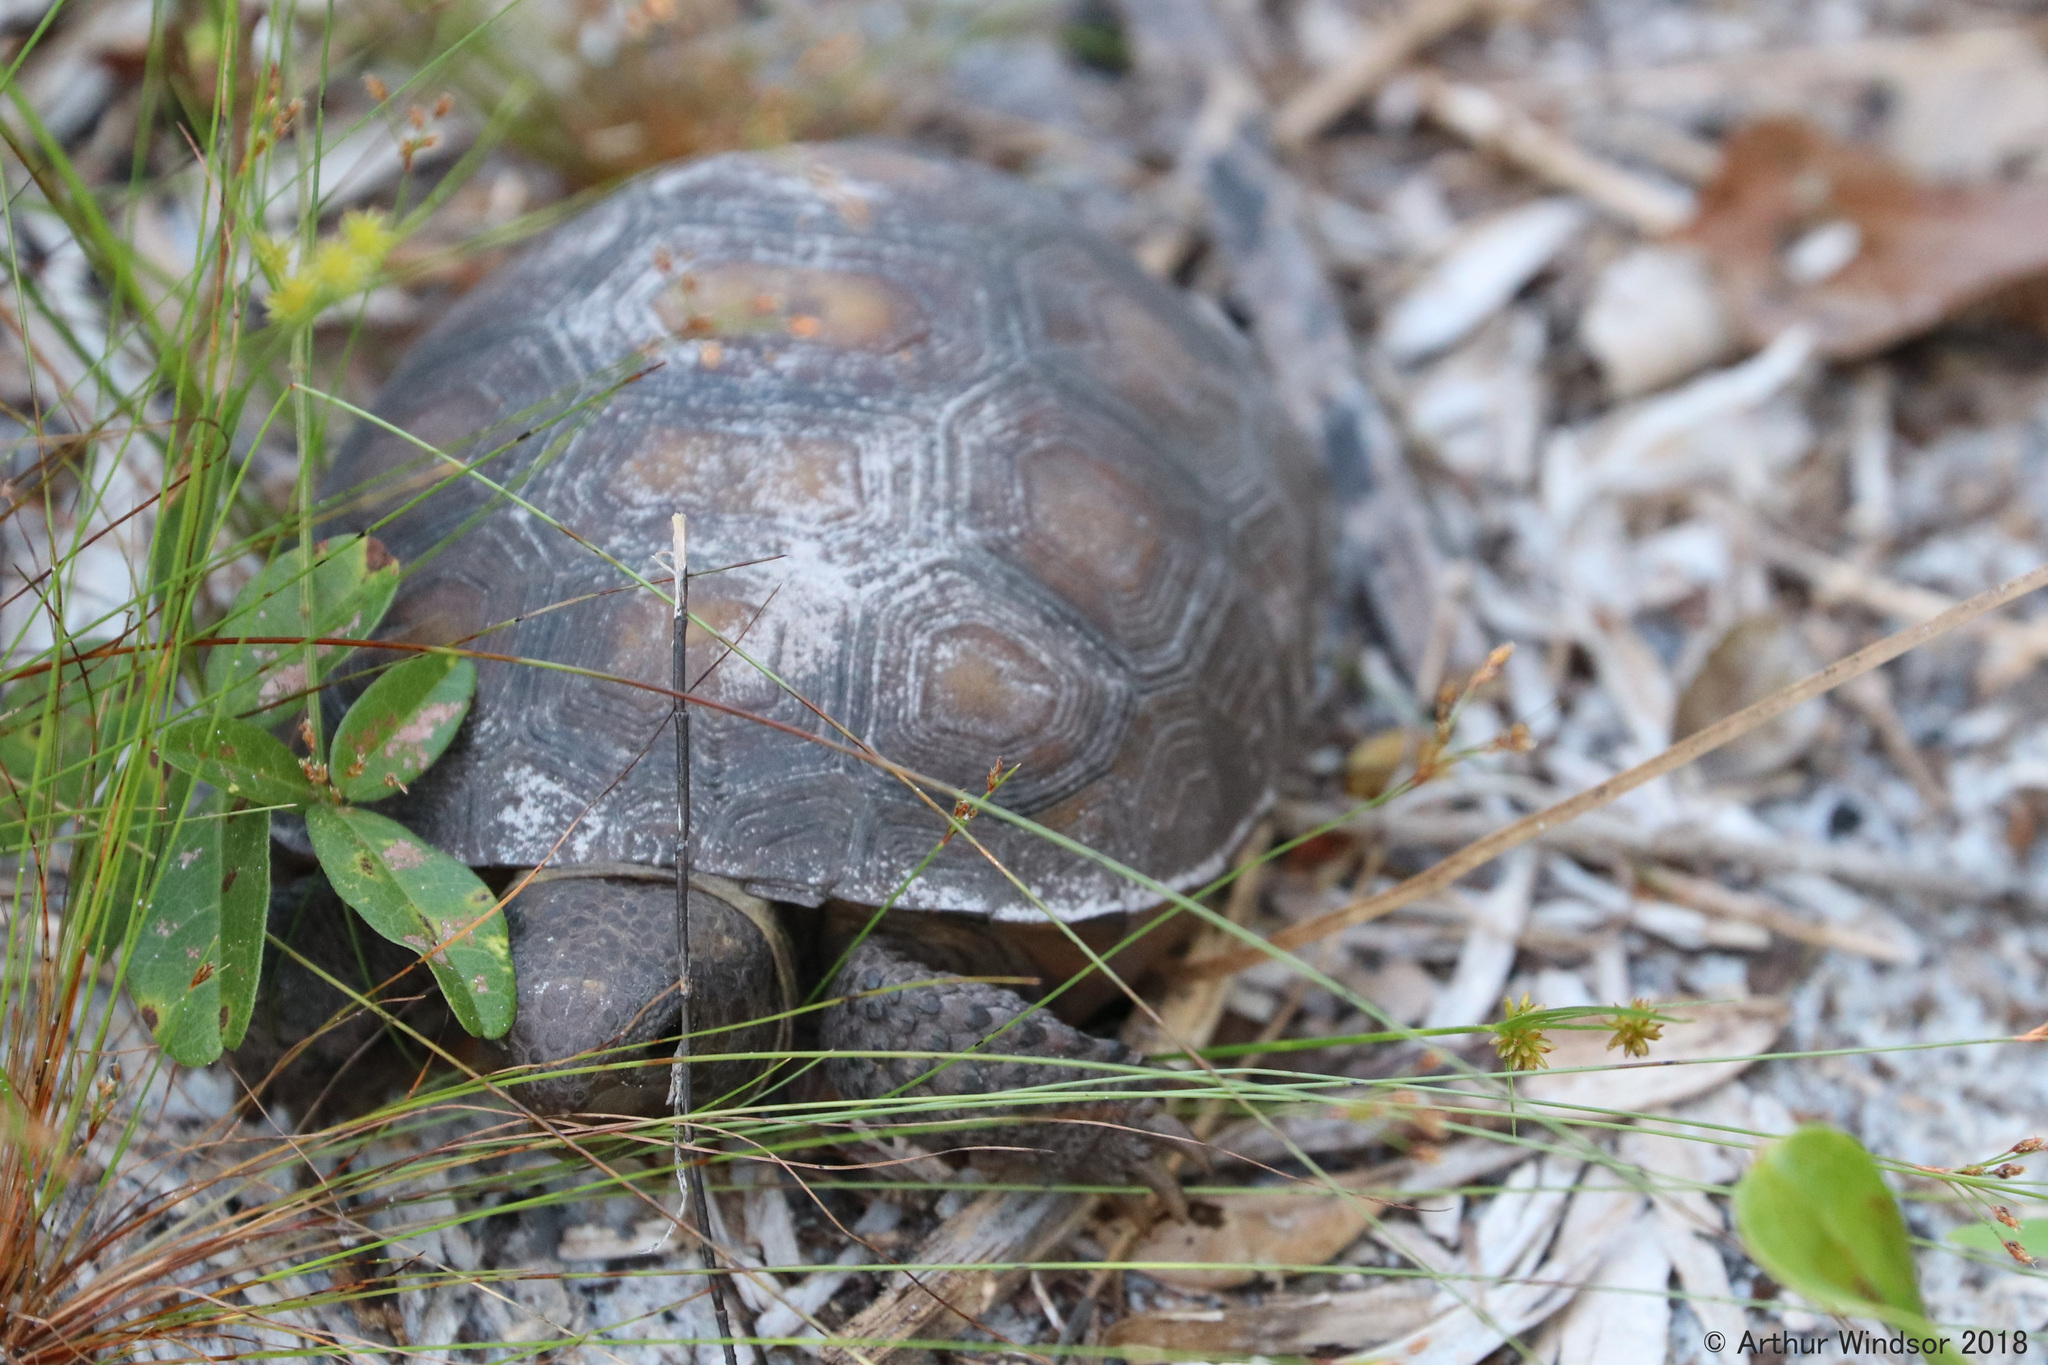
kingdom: Animalia
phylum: Chordata
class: Testudines
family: Testudinidae
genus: Gopherus
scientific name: Gopherus polyphemus
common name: Florida gopher tortoise
